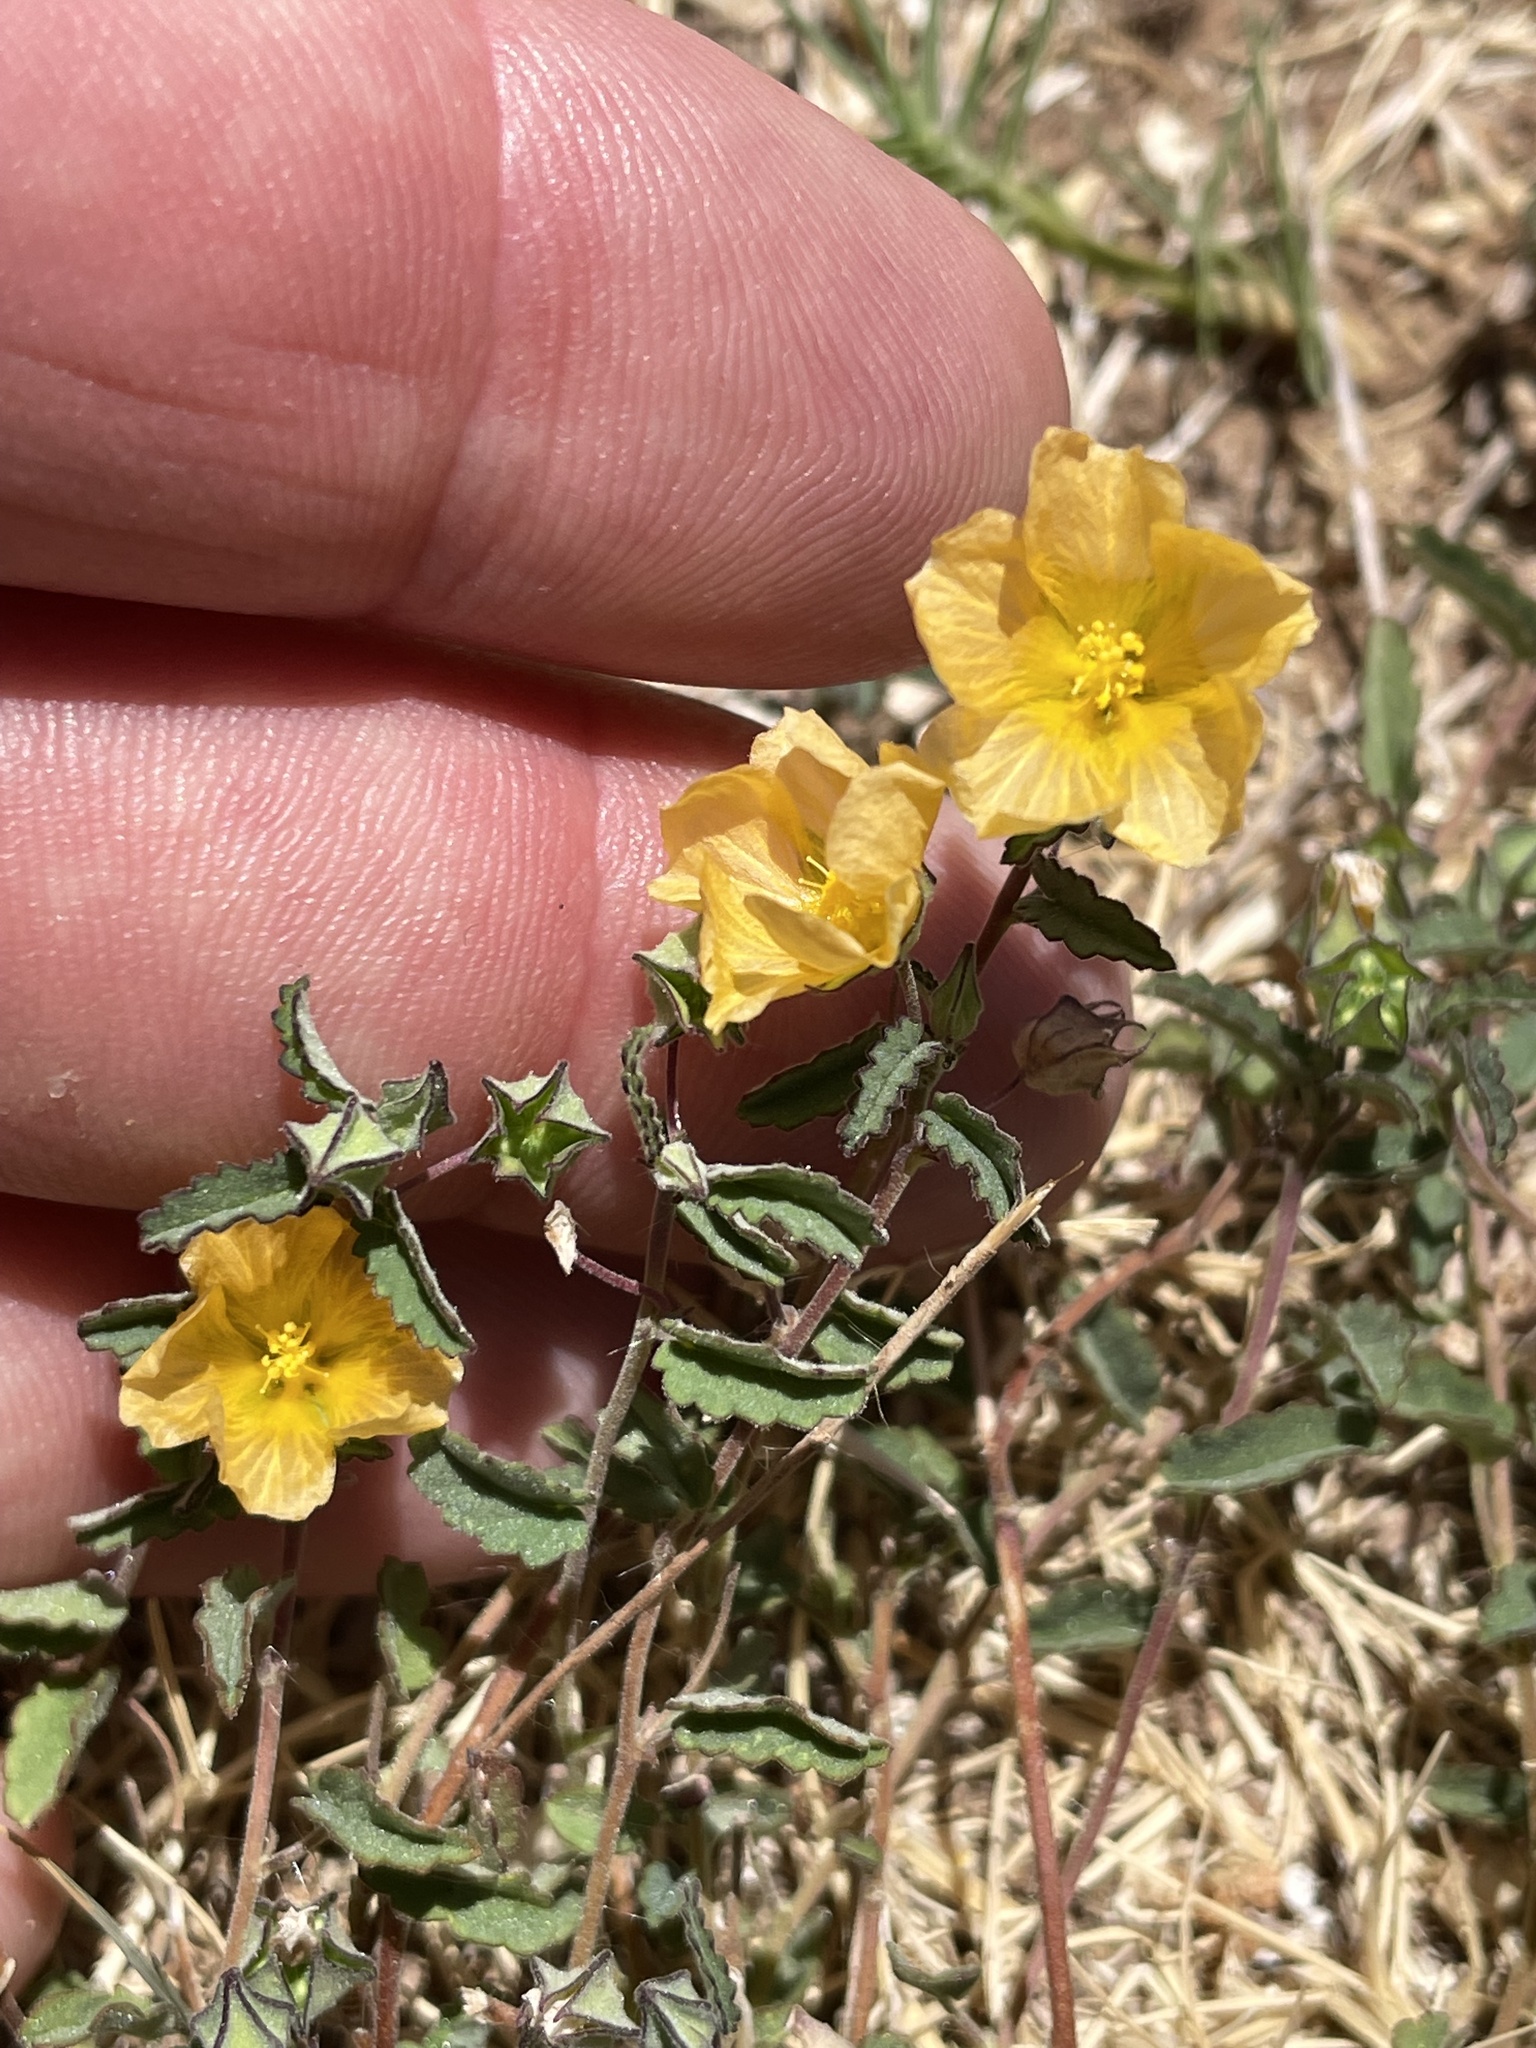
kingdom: Plantae
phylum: Tracheophyta
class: Magnoliopsida
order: Malvales
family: Malvaceae
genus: Sida
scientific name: Sida abutilifolia
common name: Spreading fanpetals
